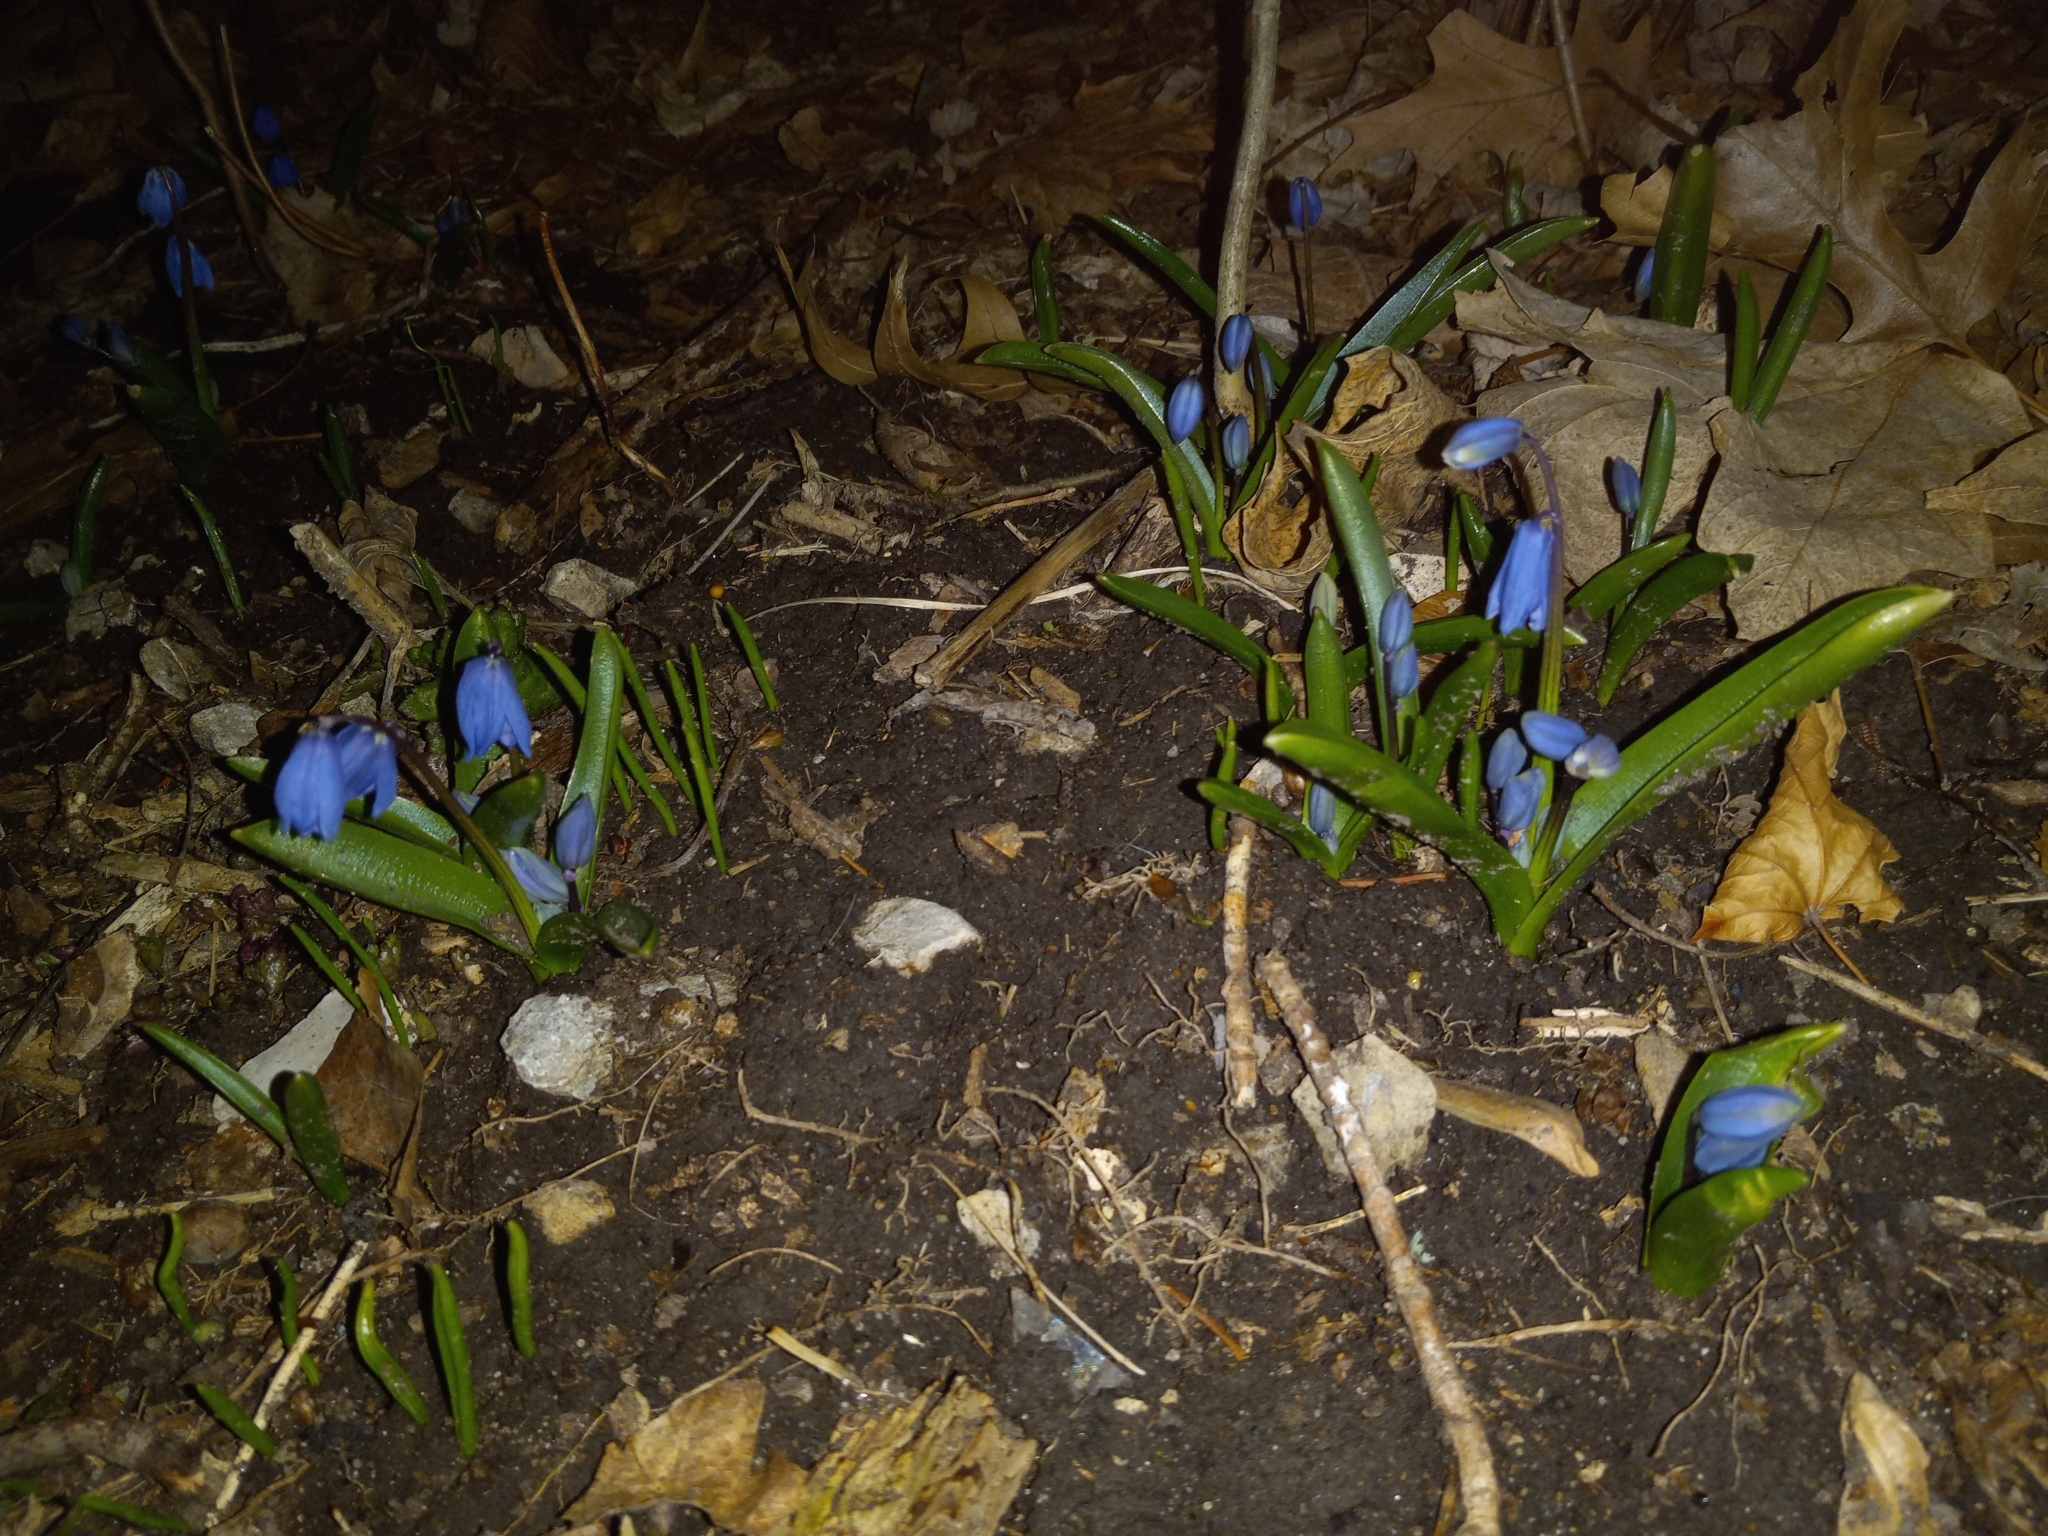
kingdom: Plantae
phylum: Tracheophyta
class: Liliopsida
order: Asparagales
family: Asparagaceae
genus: Scilla
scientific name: Scilla siberica
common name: Siberian squill
